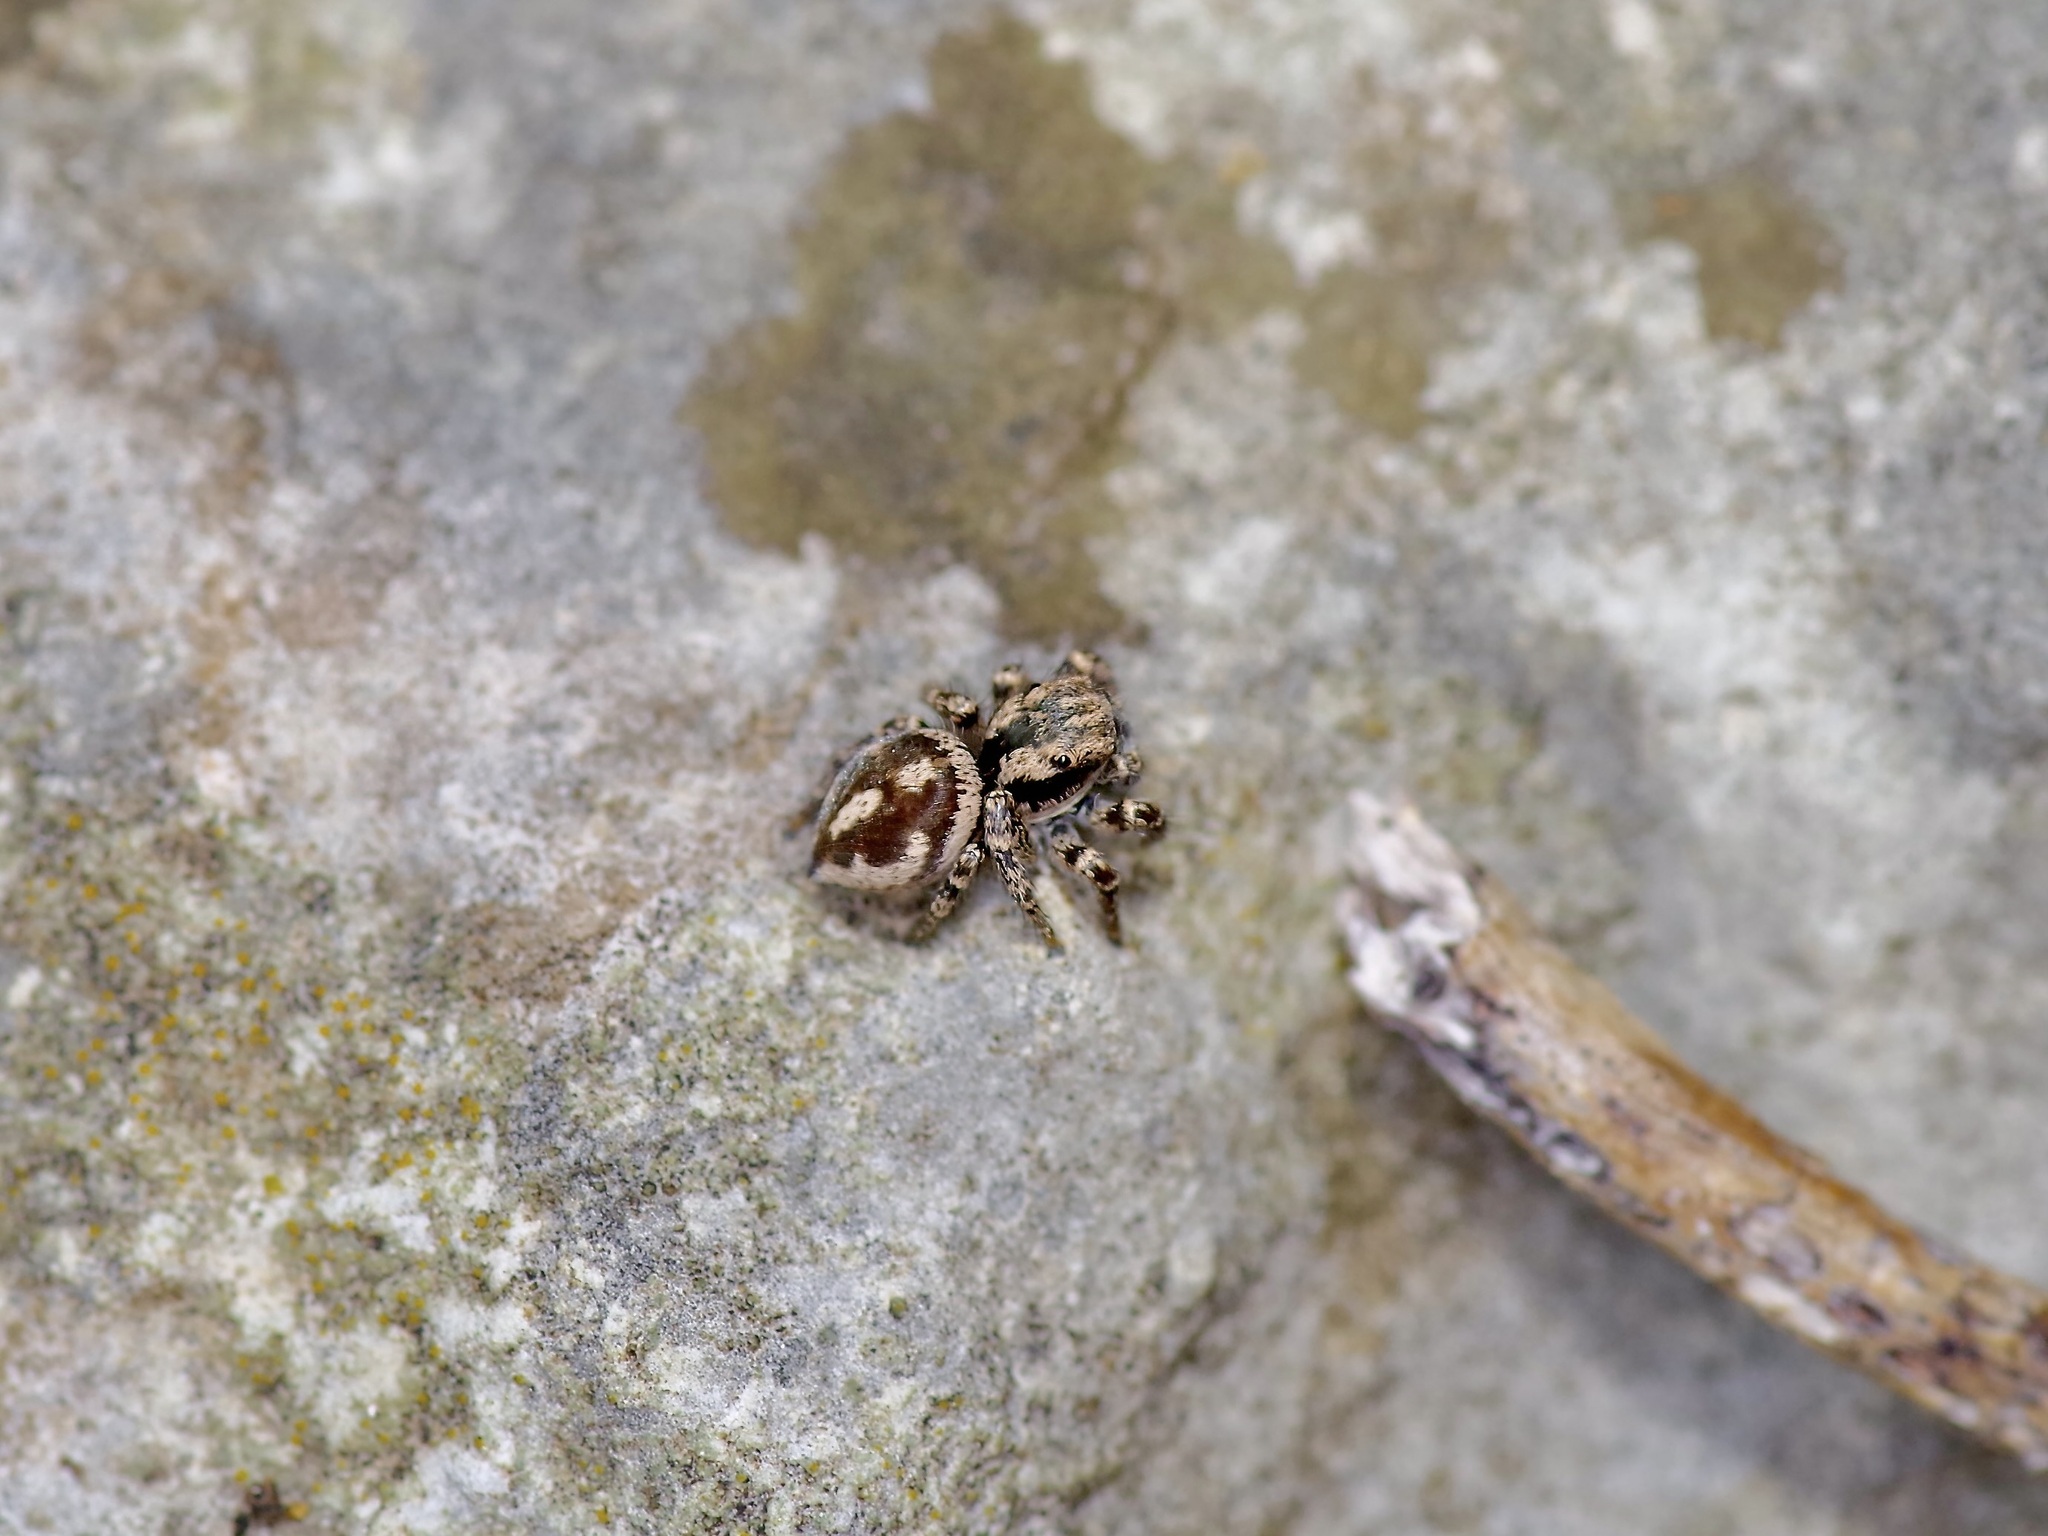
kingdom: Animalia
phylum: Arthropoda
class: Arachnida
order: Araneae
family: Salticidae
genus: Habronattus
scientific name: Habronattus fallax
